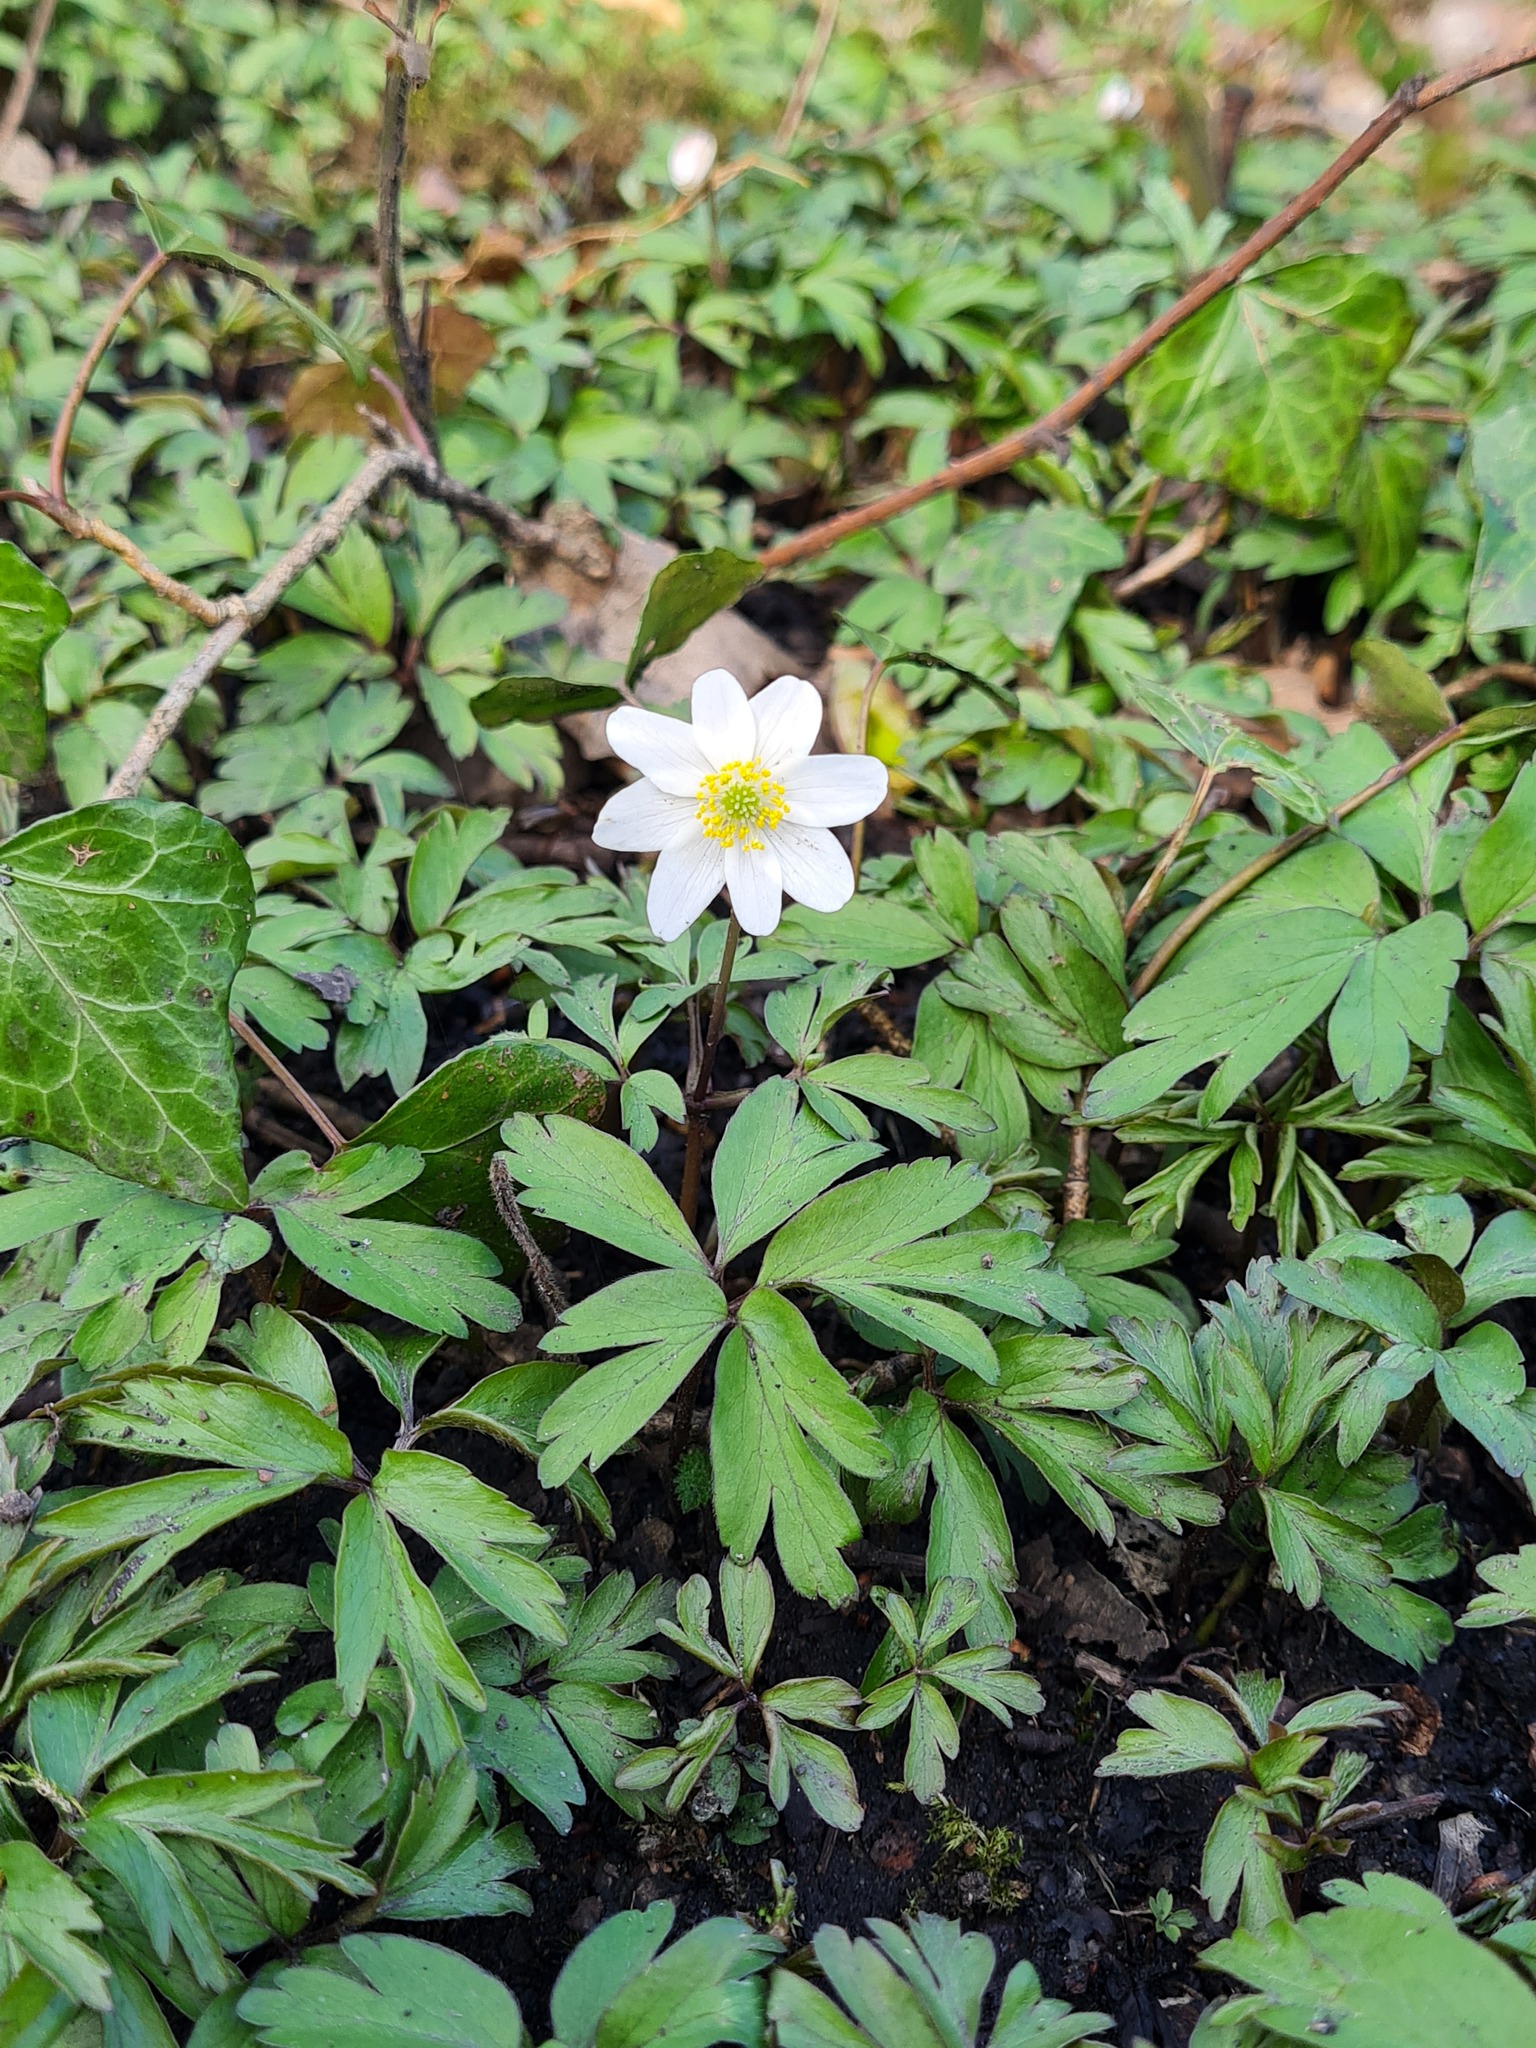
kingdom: Plantae
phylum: Tracheophyta
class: Magnoliopsida
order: Ranunculales
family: Ranunculaceae
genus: Anemone
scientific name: Anemone nemorosa
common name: Wood anemone
